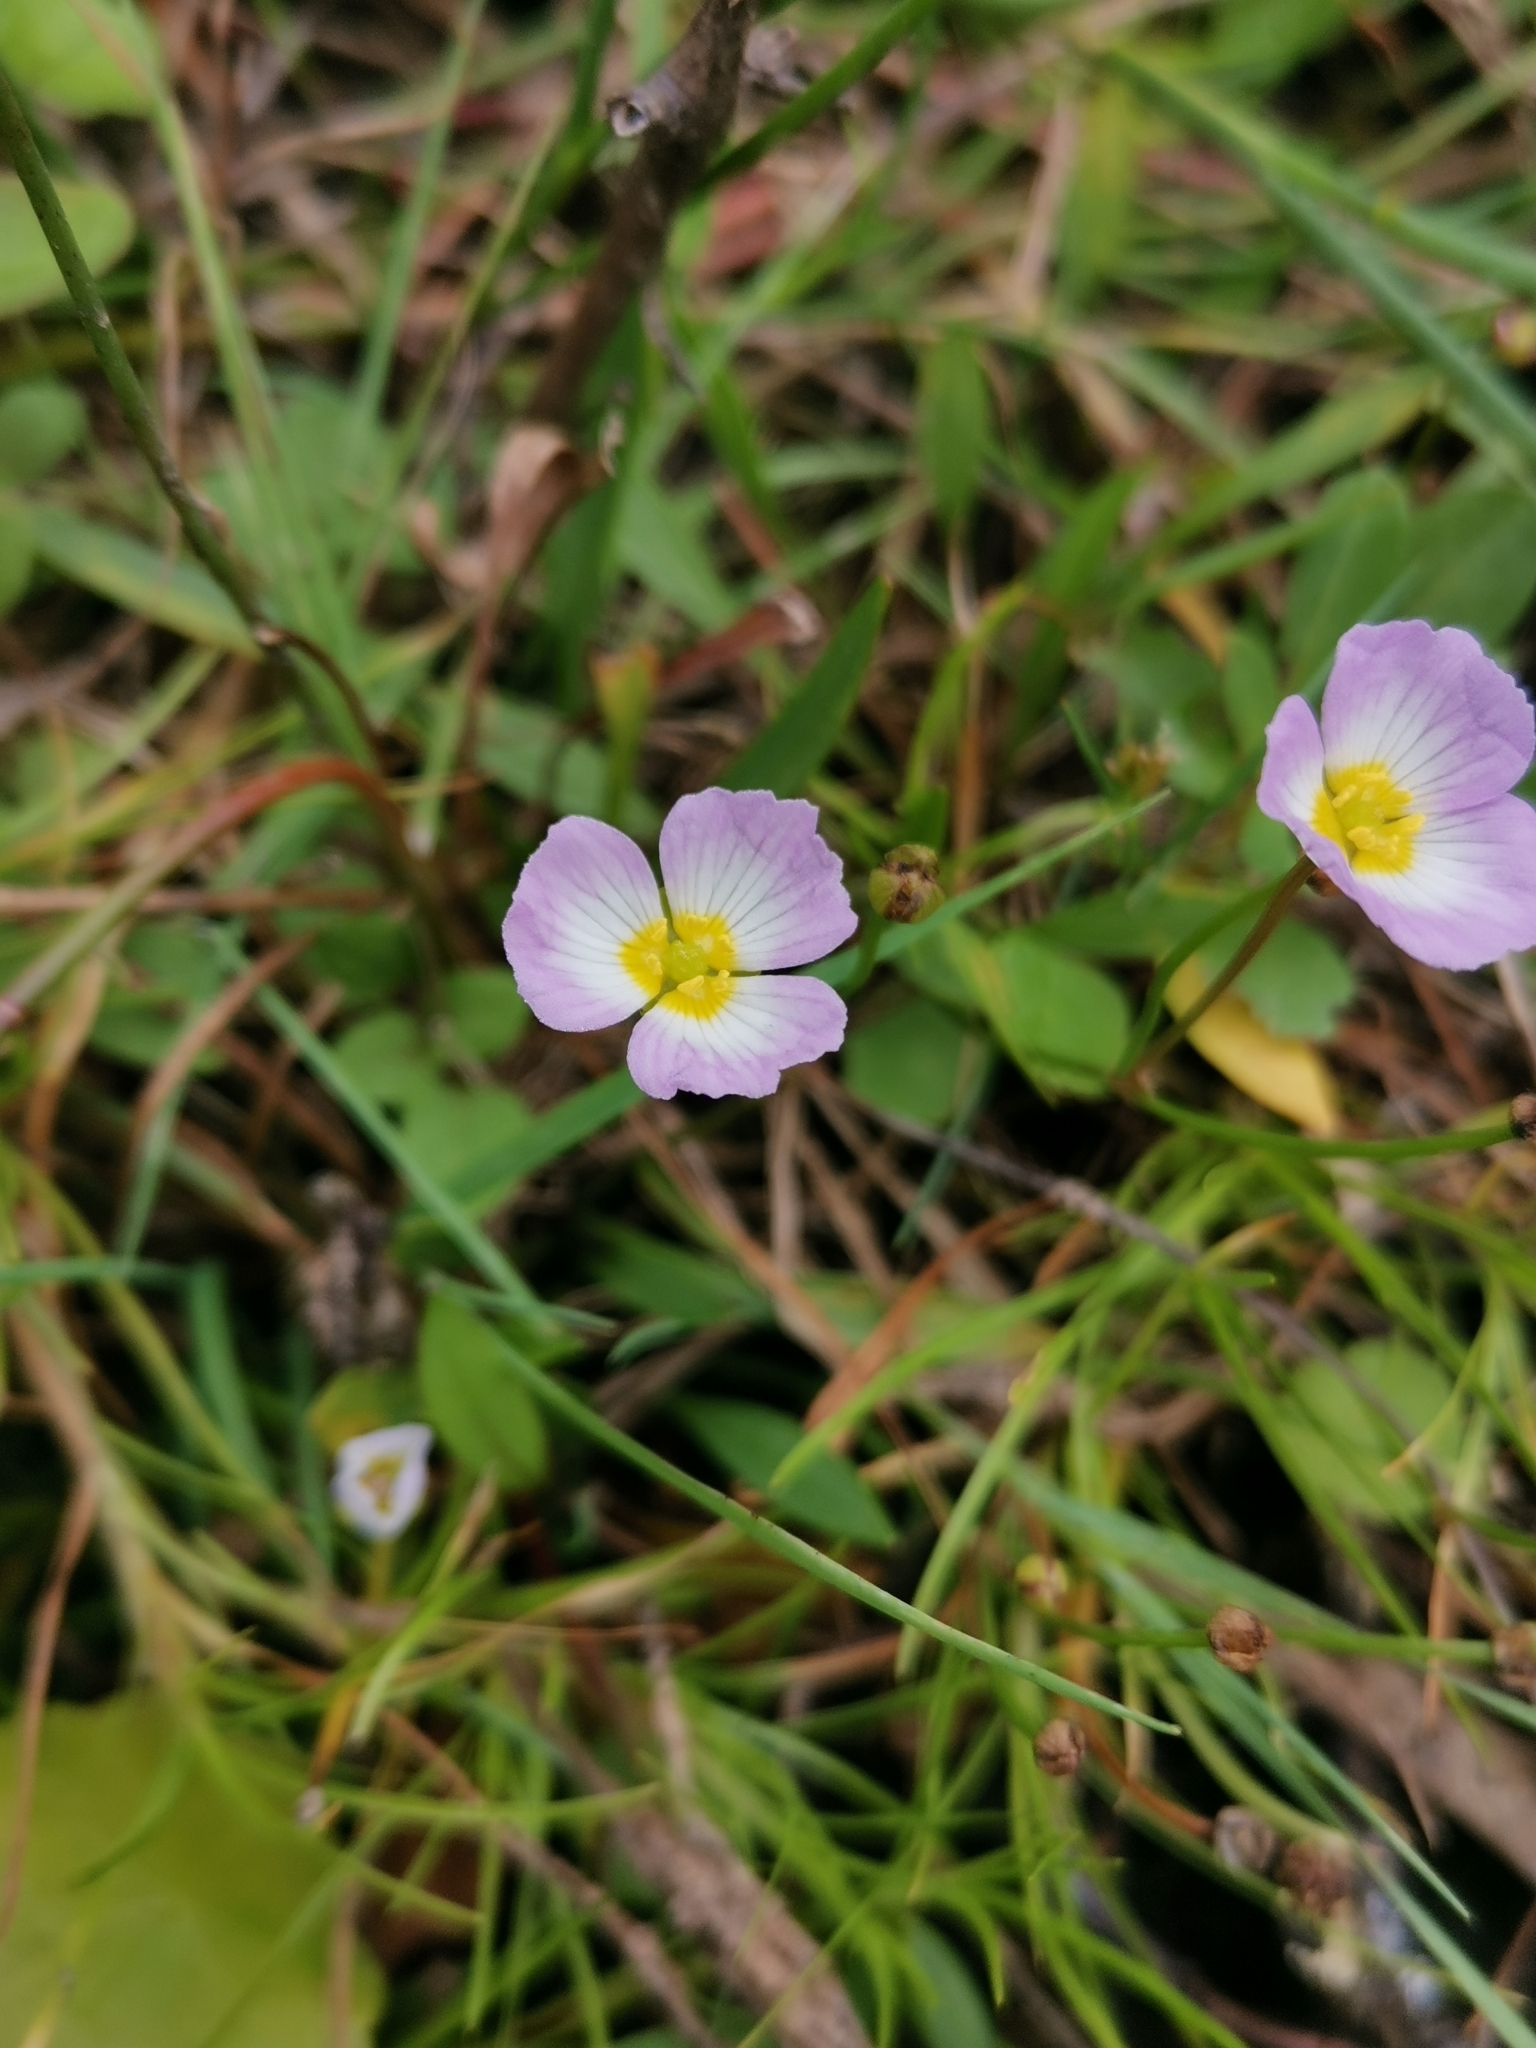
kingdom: Plantae
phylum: Tracheophyta
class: Liliopsida
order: Alismatales
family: Alismataceae
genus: Baldellia
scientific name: Baldellia ranunculoides
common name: Lesser water-plantain
